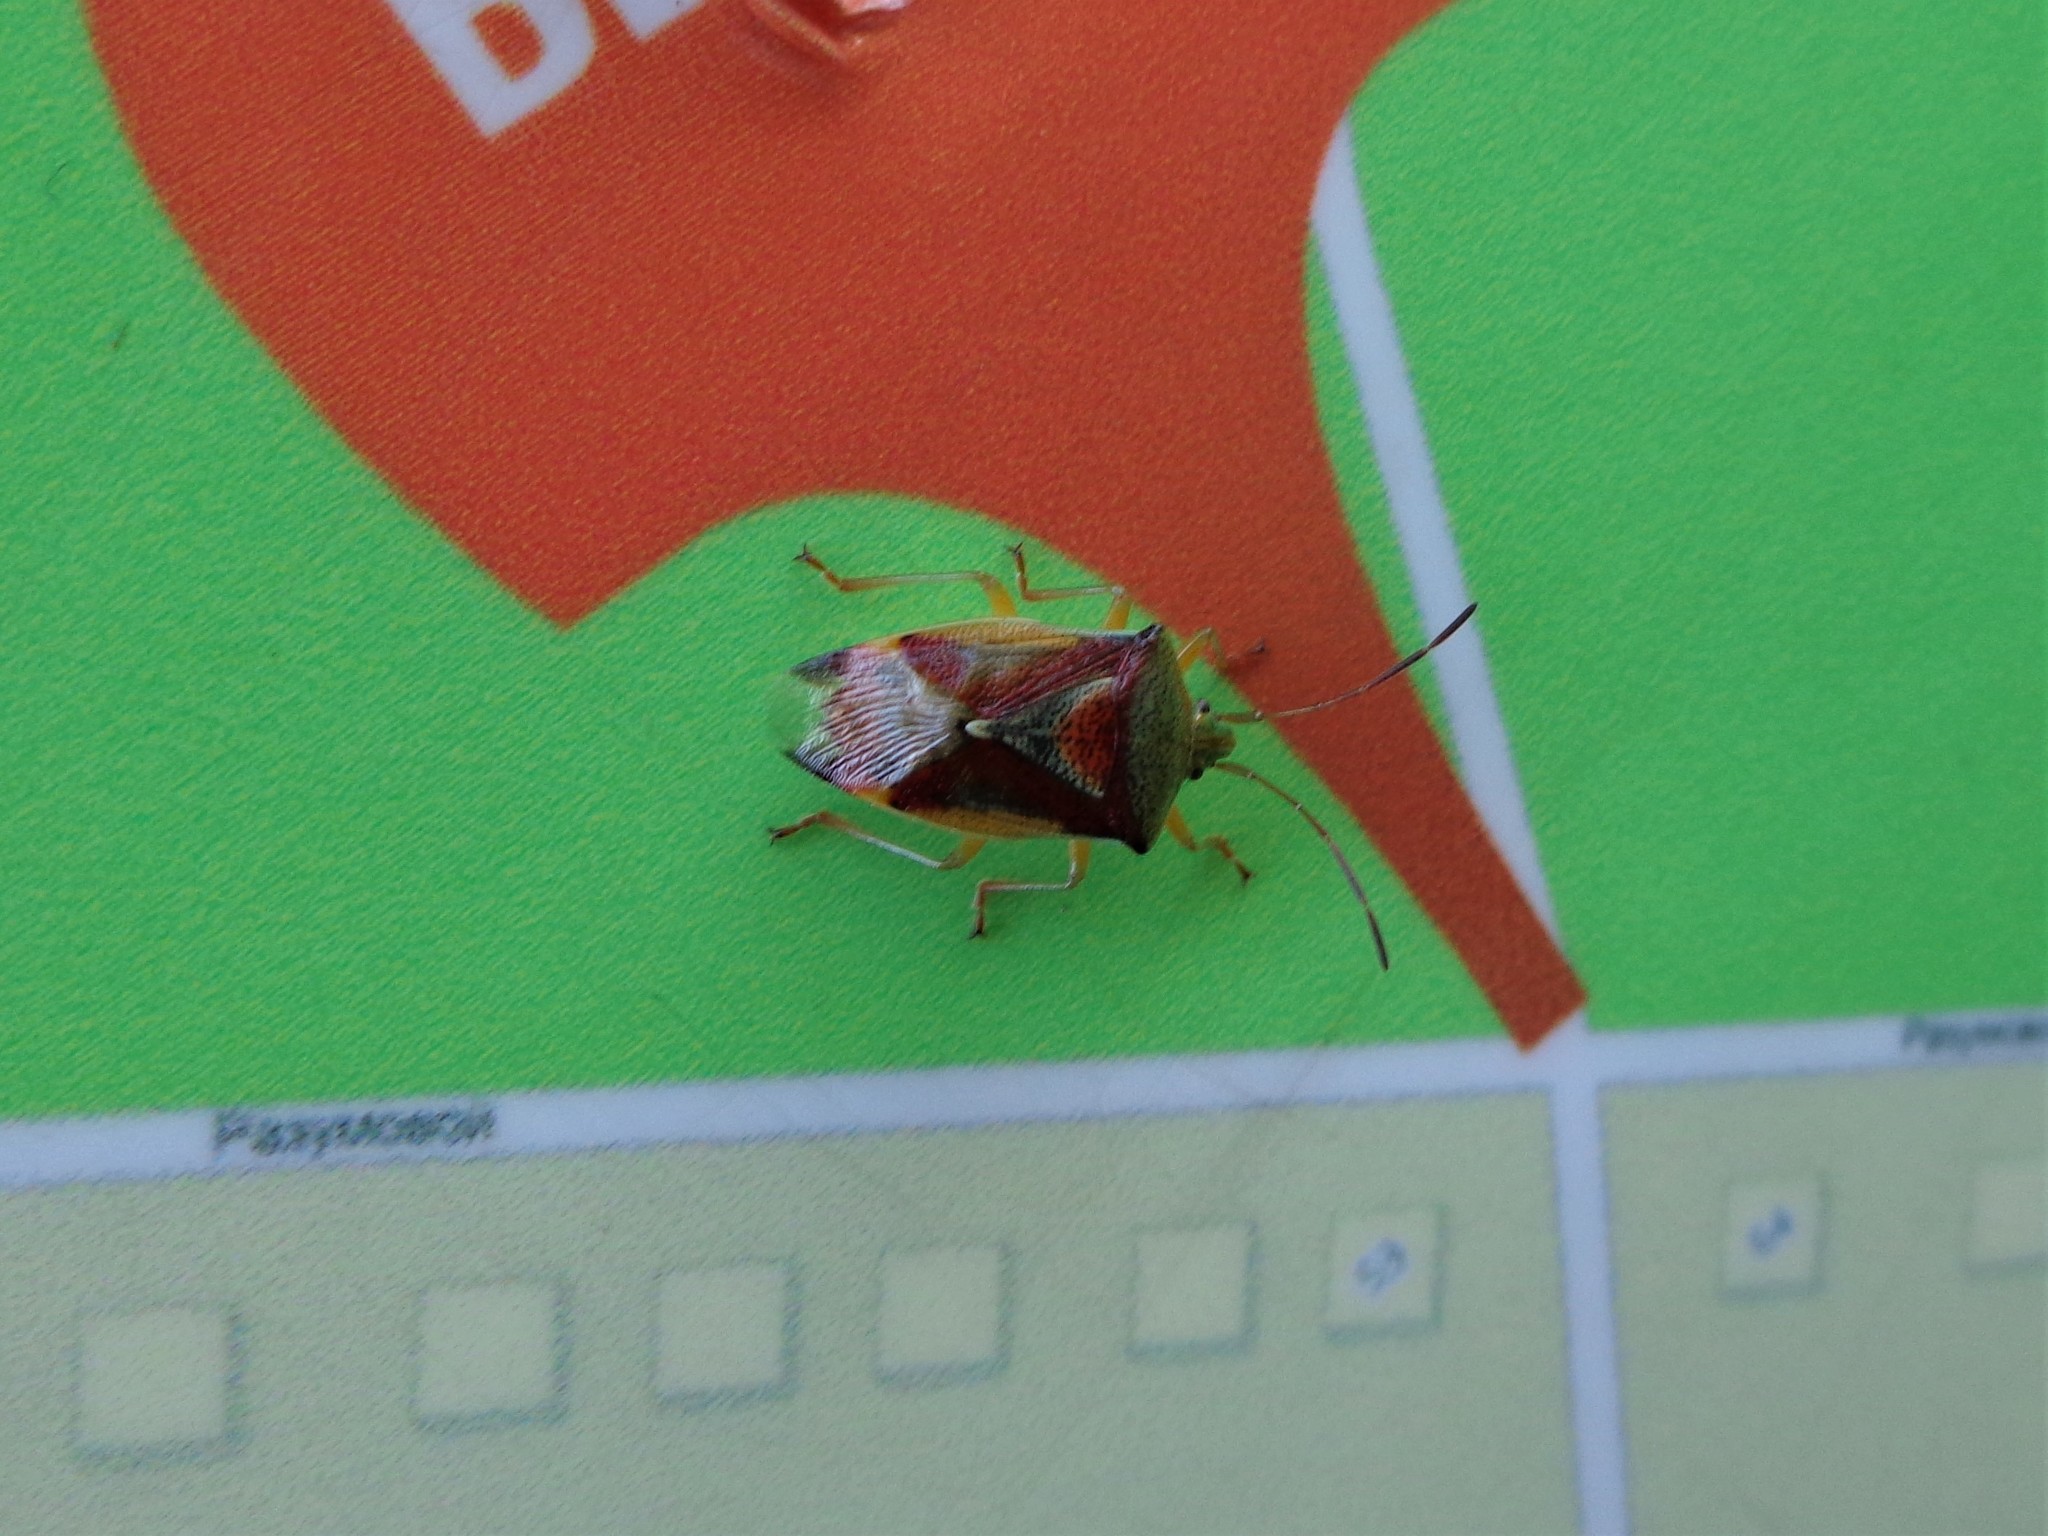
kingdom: Animalia
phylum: Arthropoda
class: Insecta
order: Hemiptera
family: Acanthosomatidae
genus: Elasmostethus
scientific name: Elasmostethus
